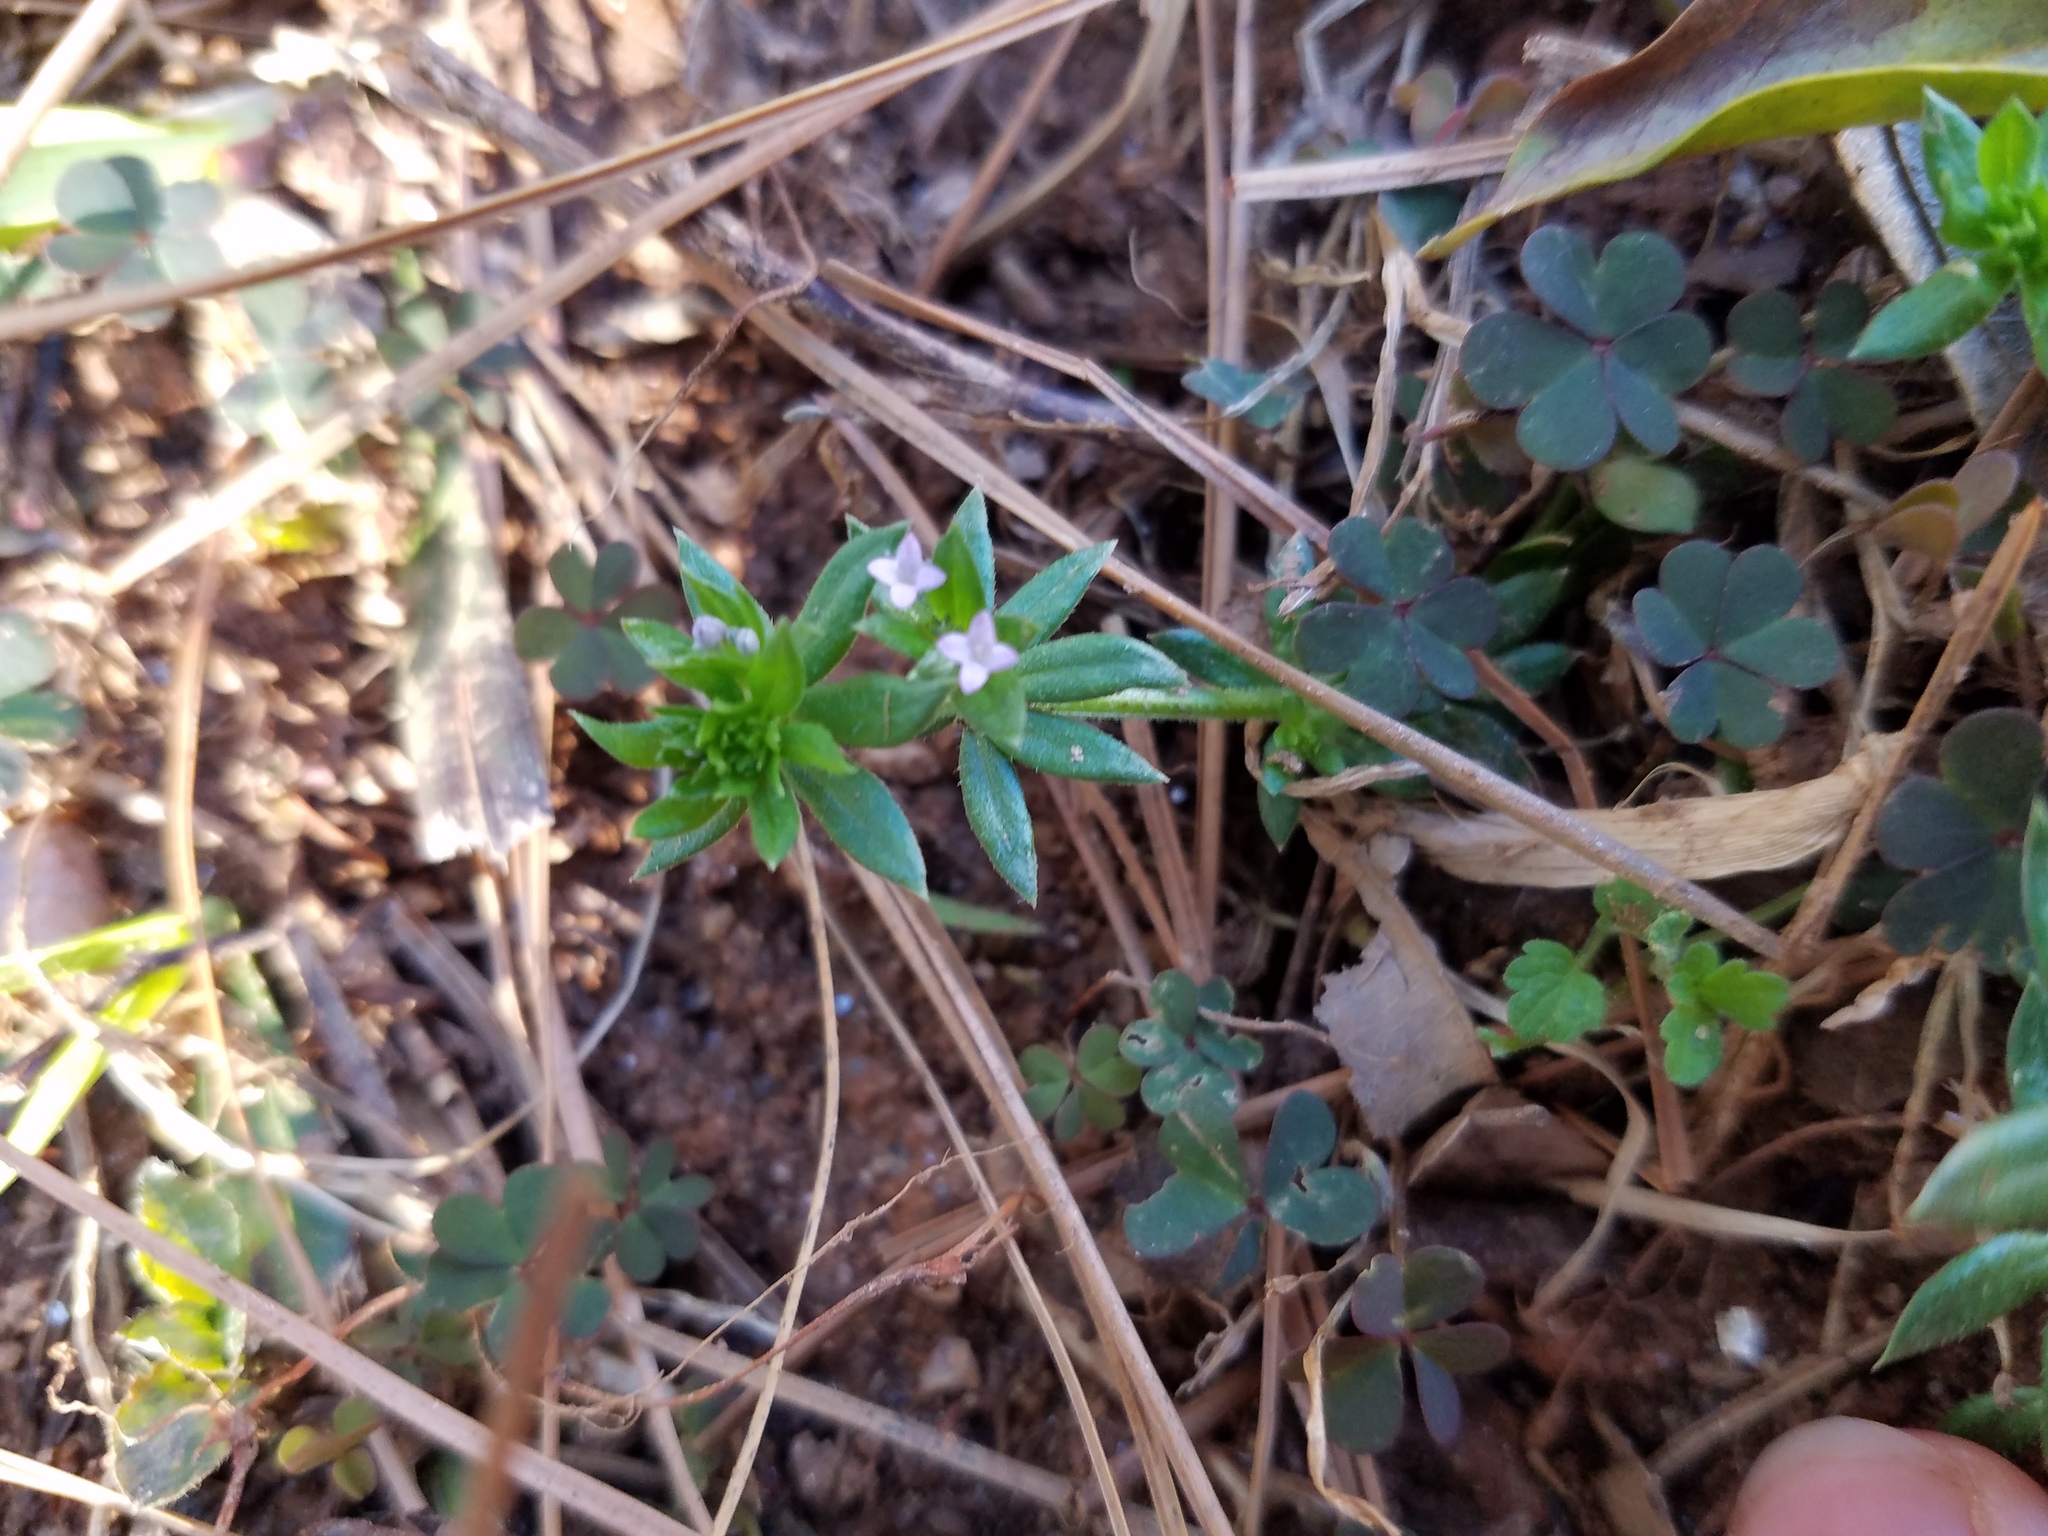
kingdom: Plantae
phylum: Tracheophyta
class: Magnoliopsida
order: Gentianales
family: Rubiaceae
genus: Sherardia
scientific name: Sherardia arvensis
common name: Field madder
